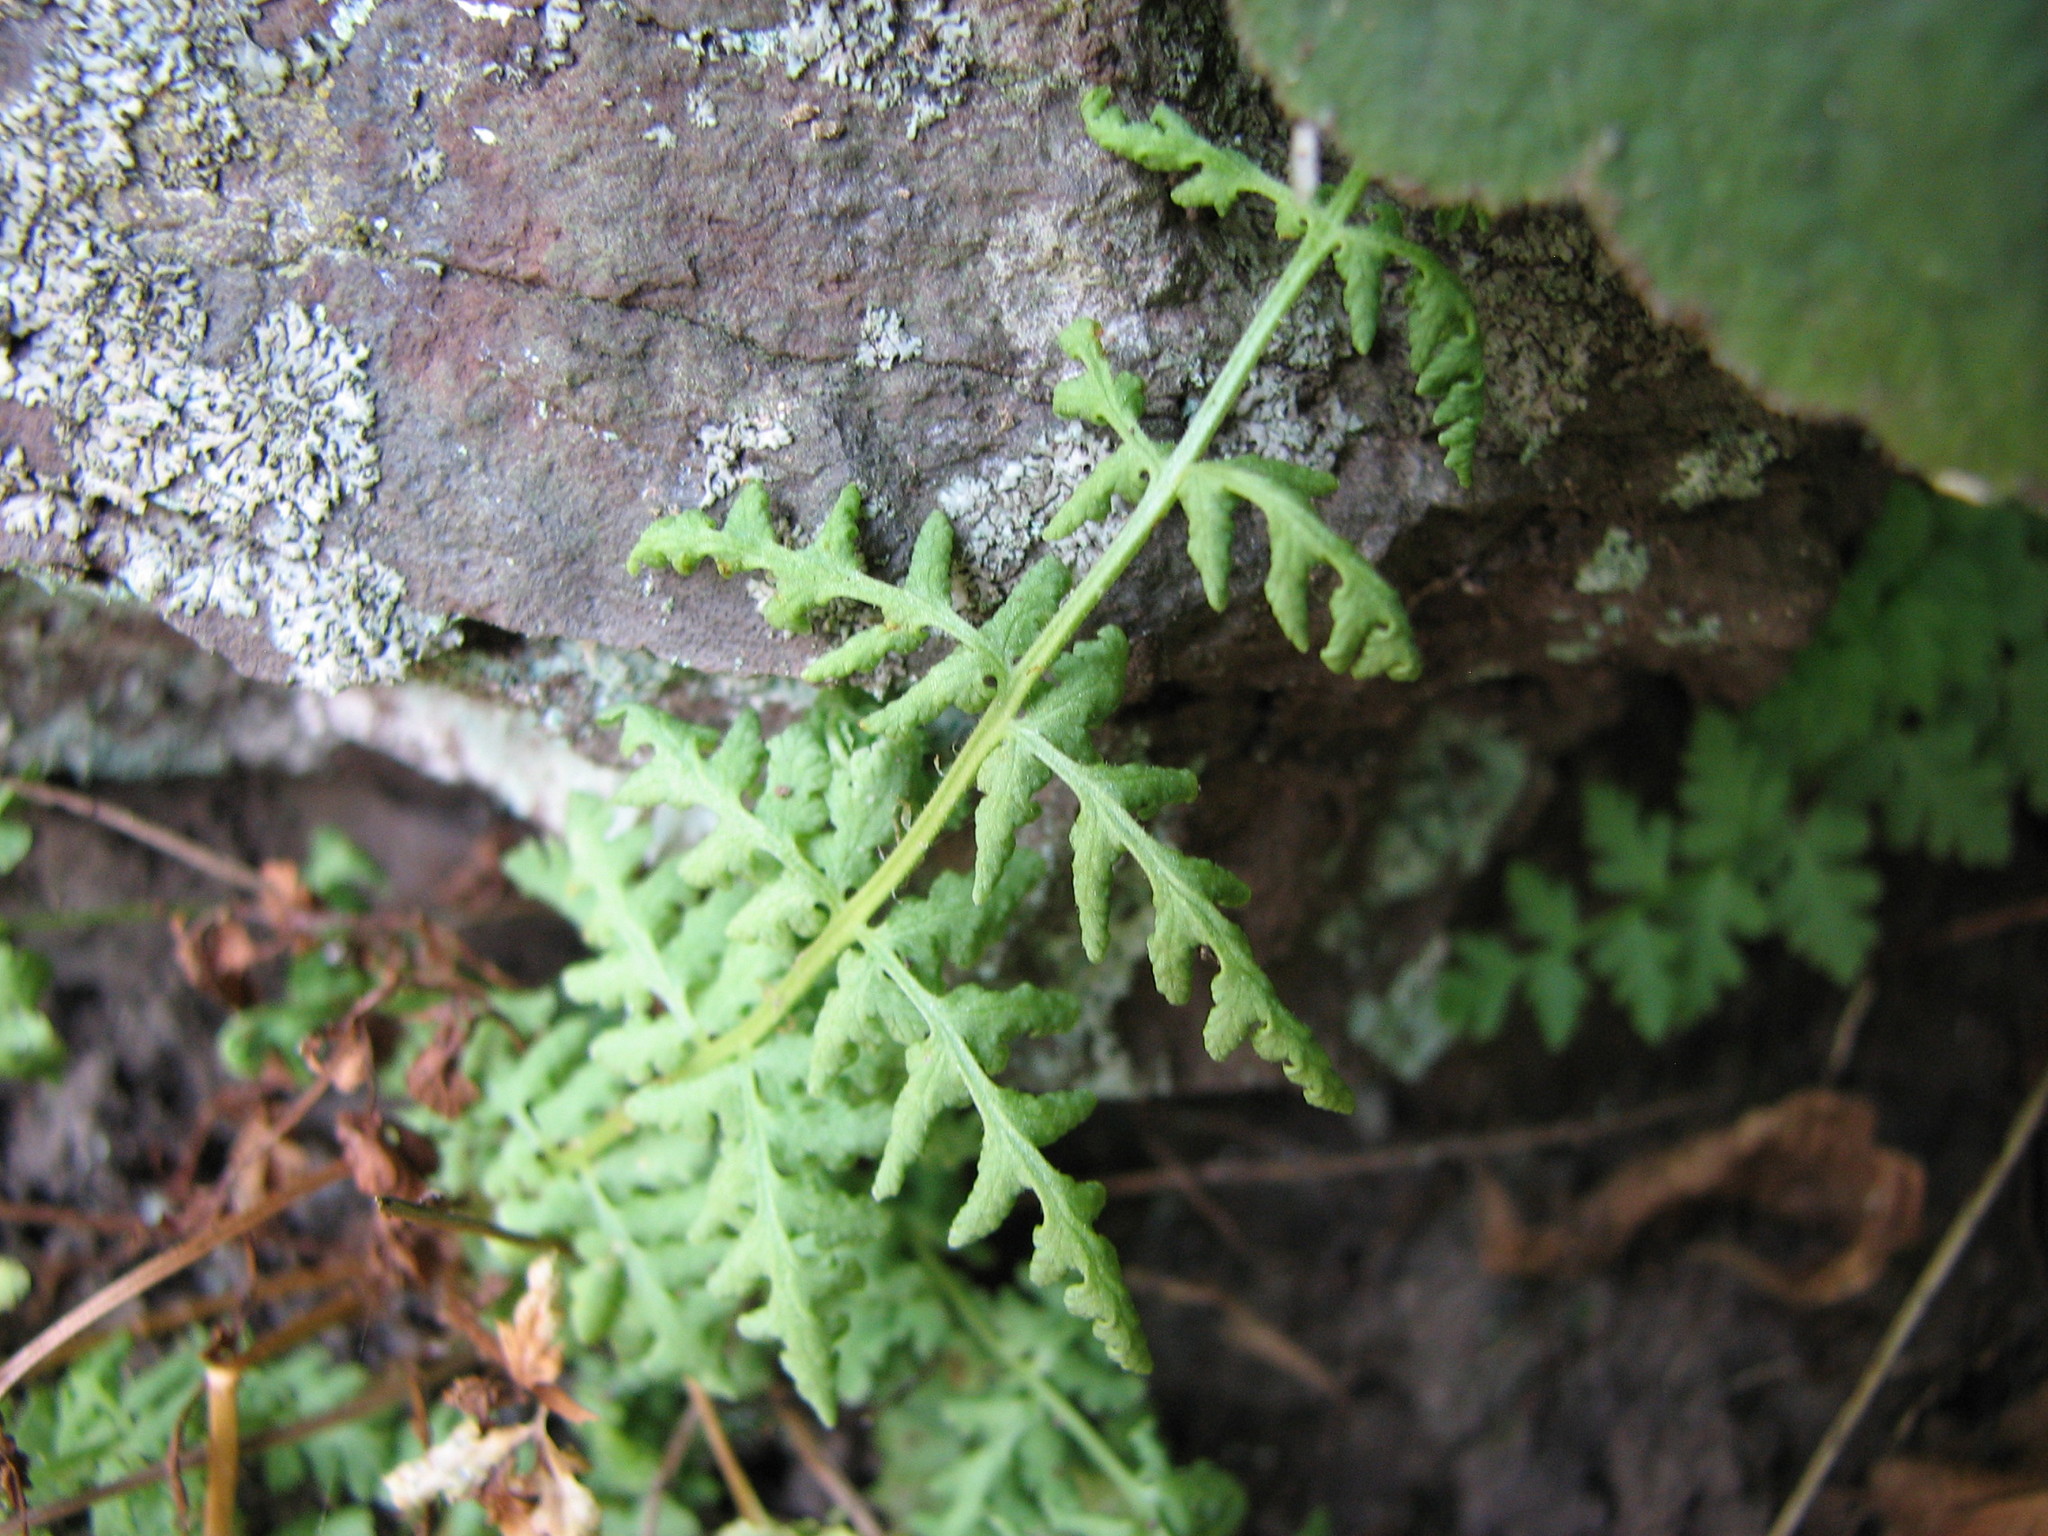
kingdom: Plantae
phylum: Tracheophyta
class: Polypodiopsida
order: Polypodiales
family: Woodsiaceae
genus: Physematium
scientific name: Physematium obtusum
